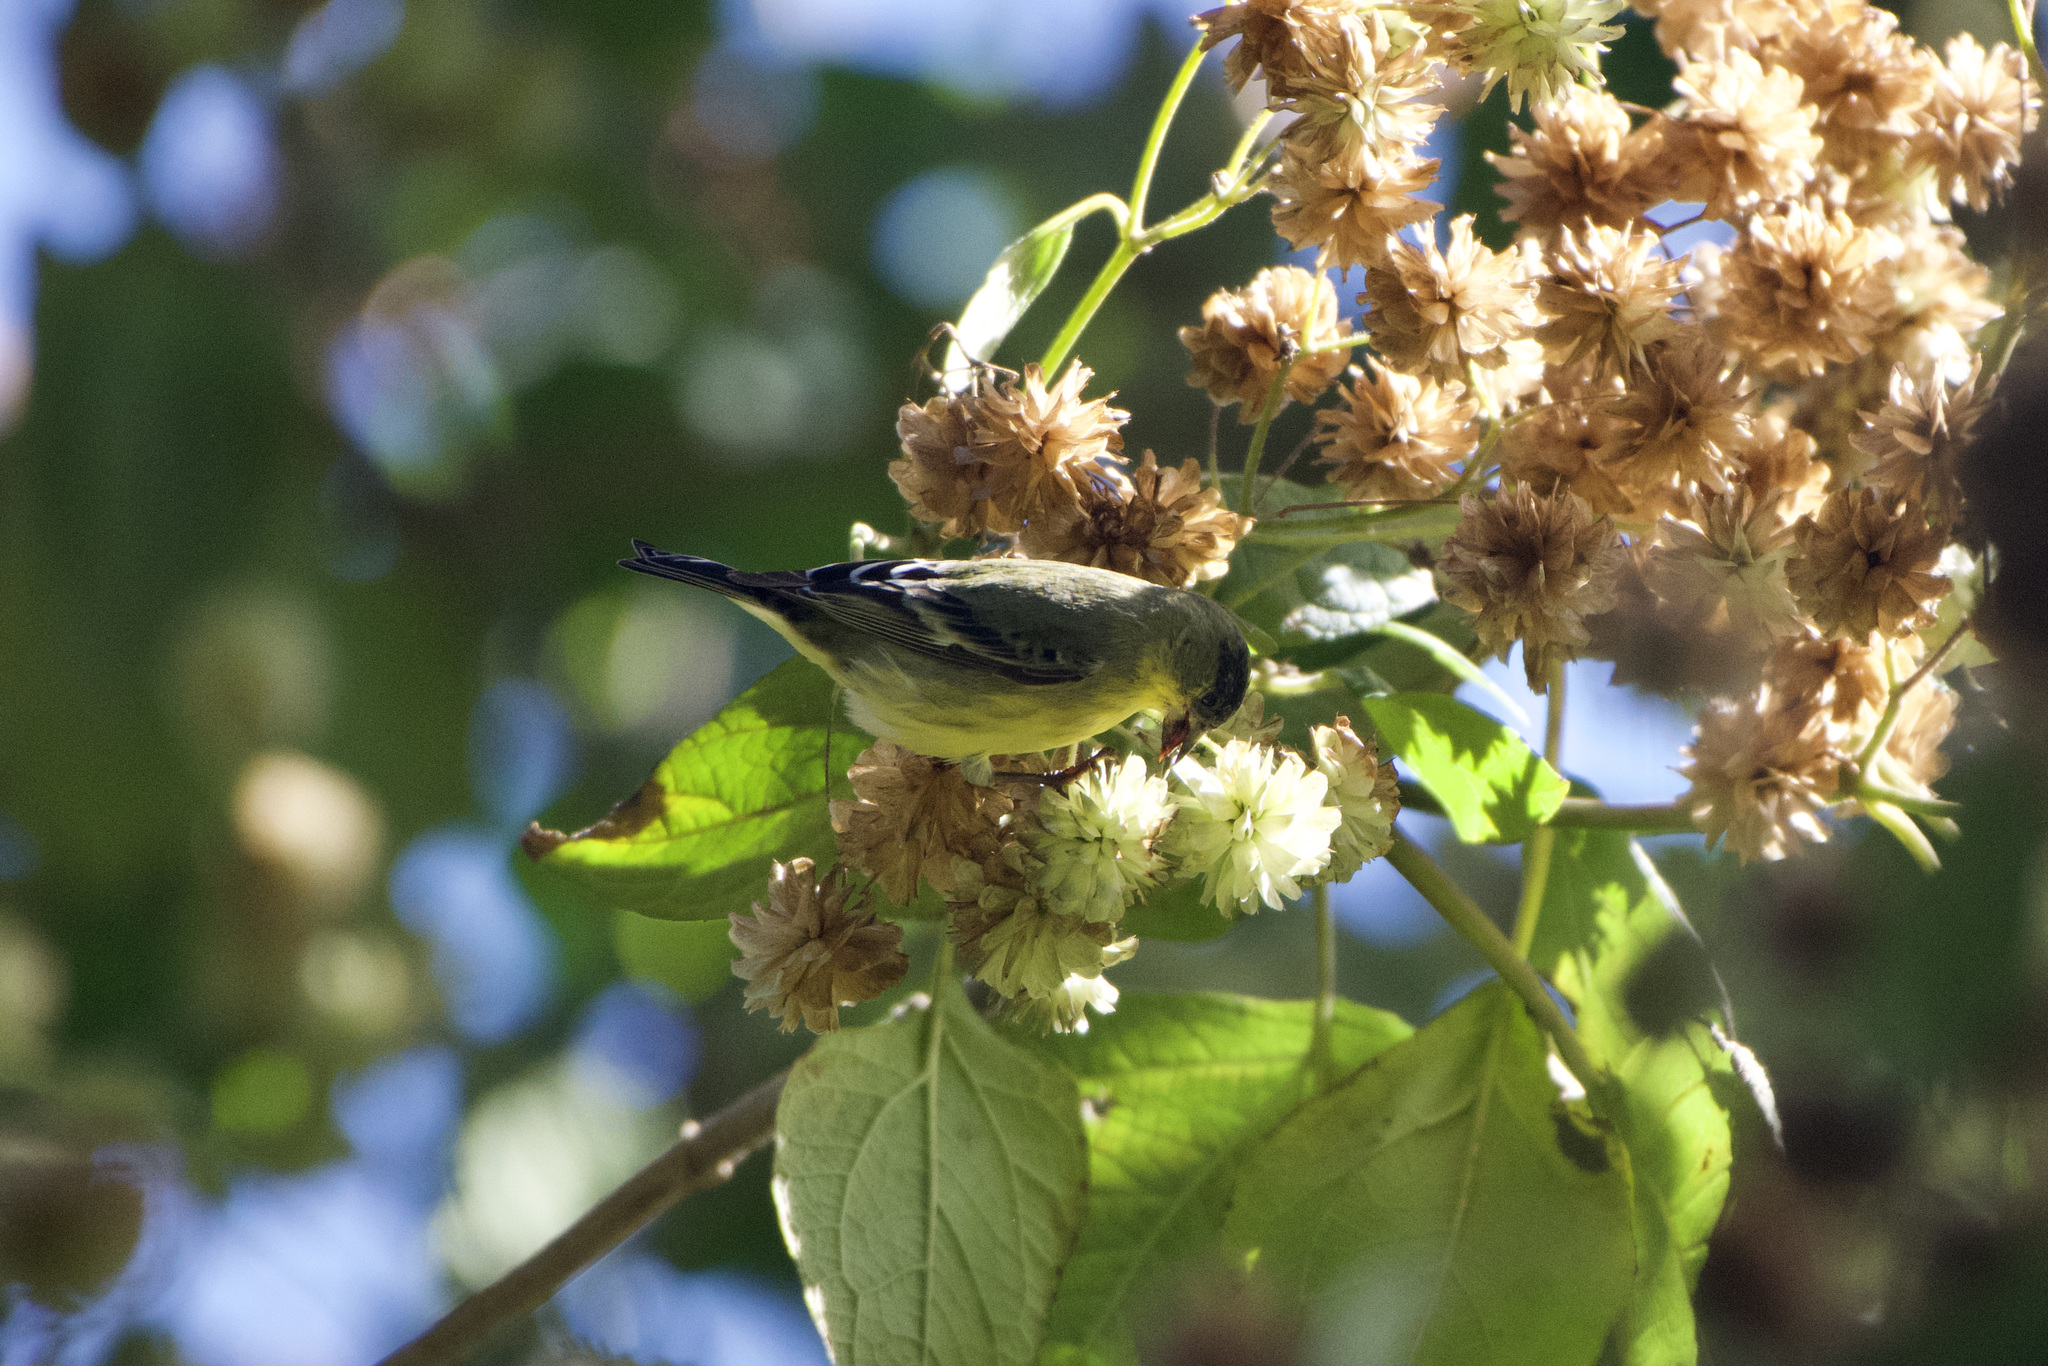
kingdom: Animalia
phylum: Chordata
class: Aves
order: Passeriformes
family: Fringillidae
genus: Spinus
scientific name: Spinus psaltria
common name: Lesser goldfinch
